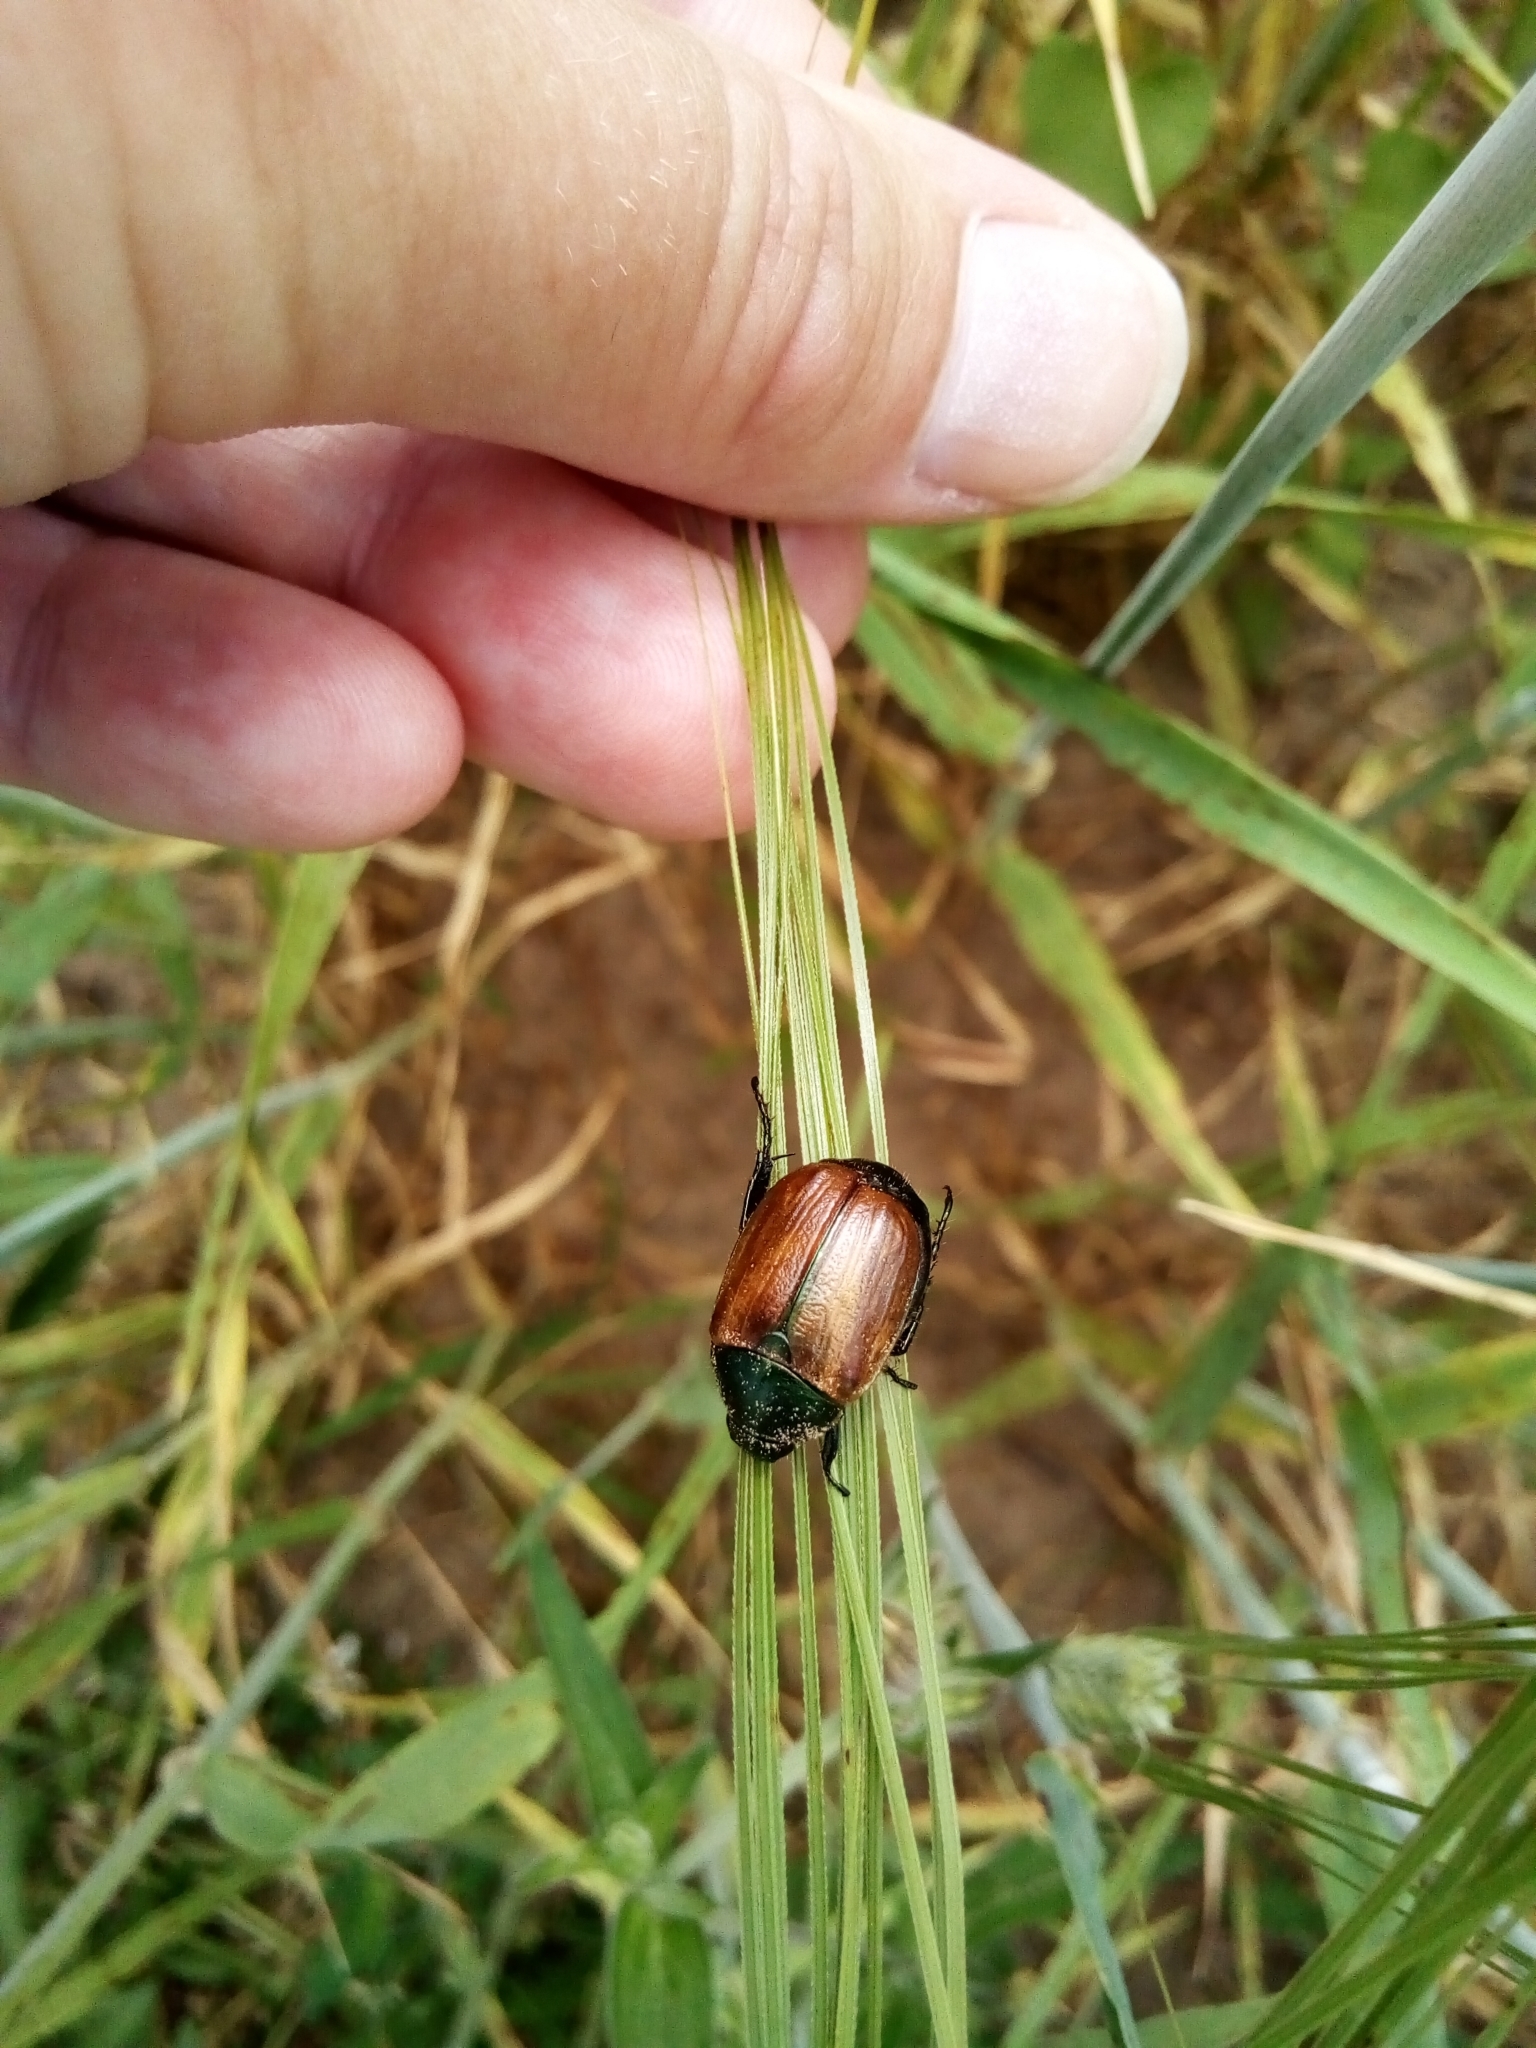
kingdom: Animalia
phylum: Arthropoda
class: Insecta
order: Coleoptera
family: Scarabaeidae
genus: Anomala
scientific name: Anomala dubia
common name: Dune chafer
